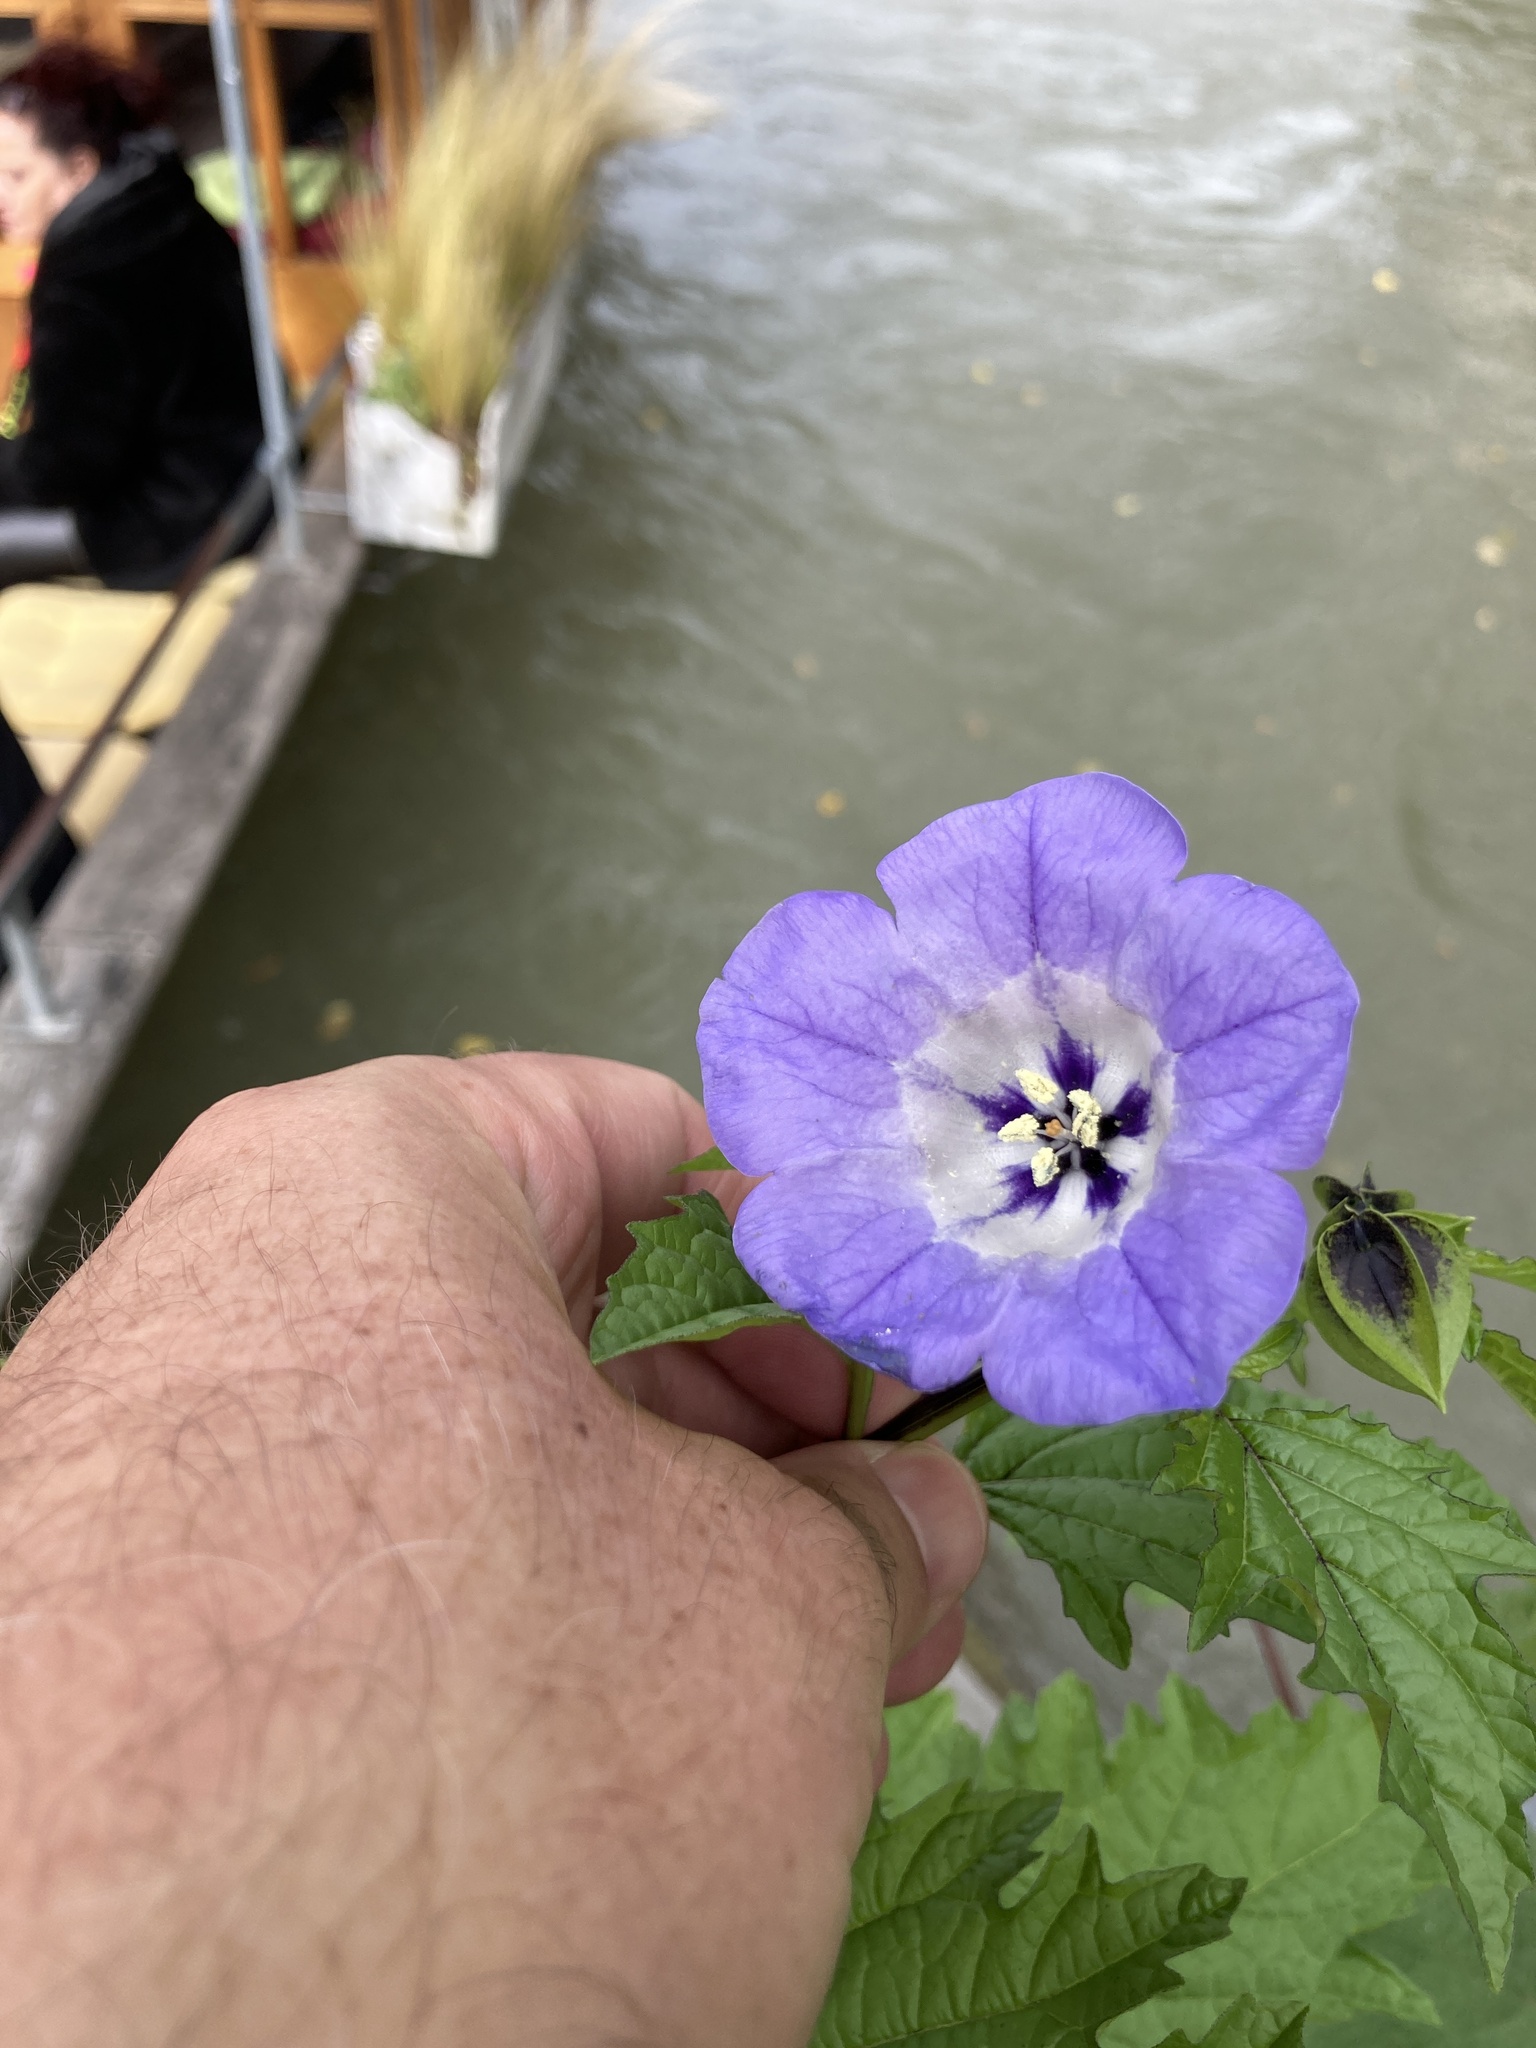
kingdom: Plantae
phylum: Tracheophyta
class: Magnoliopsida
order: Solanales
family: Solanaceae
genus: Nicandra
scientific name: Nicandra physalodes
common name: Apple-of-peru
